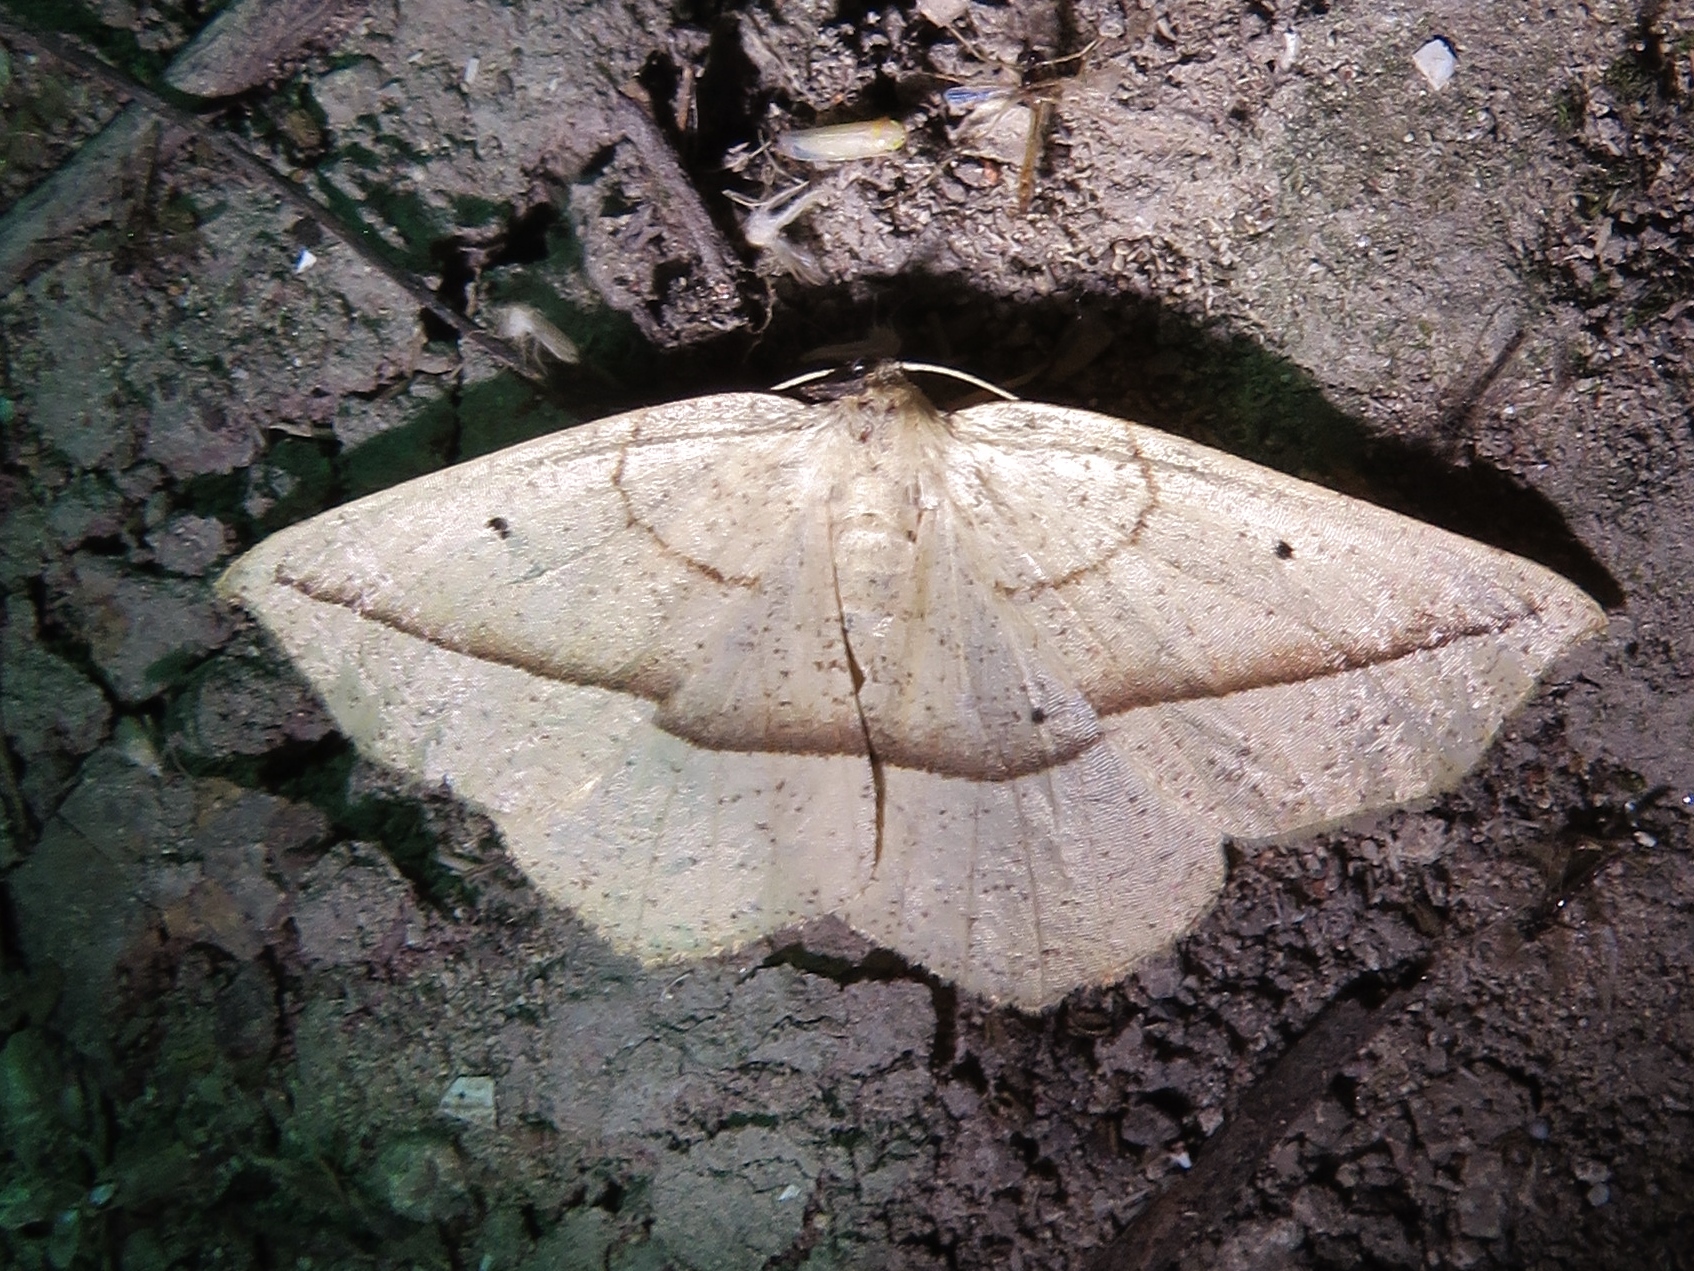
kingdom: Animalia
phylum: Arthropoda
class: Insecta
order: Lepidoptera
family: Geometridae
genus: Eusarca
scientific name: Eusarca confusaria
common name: Confused eusarca
